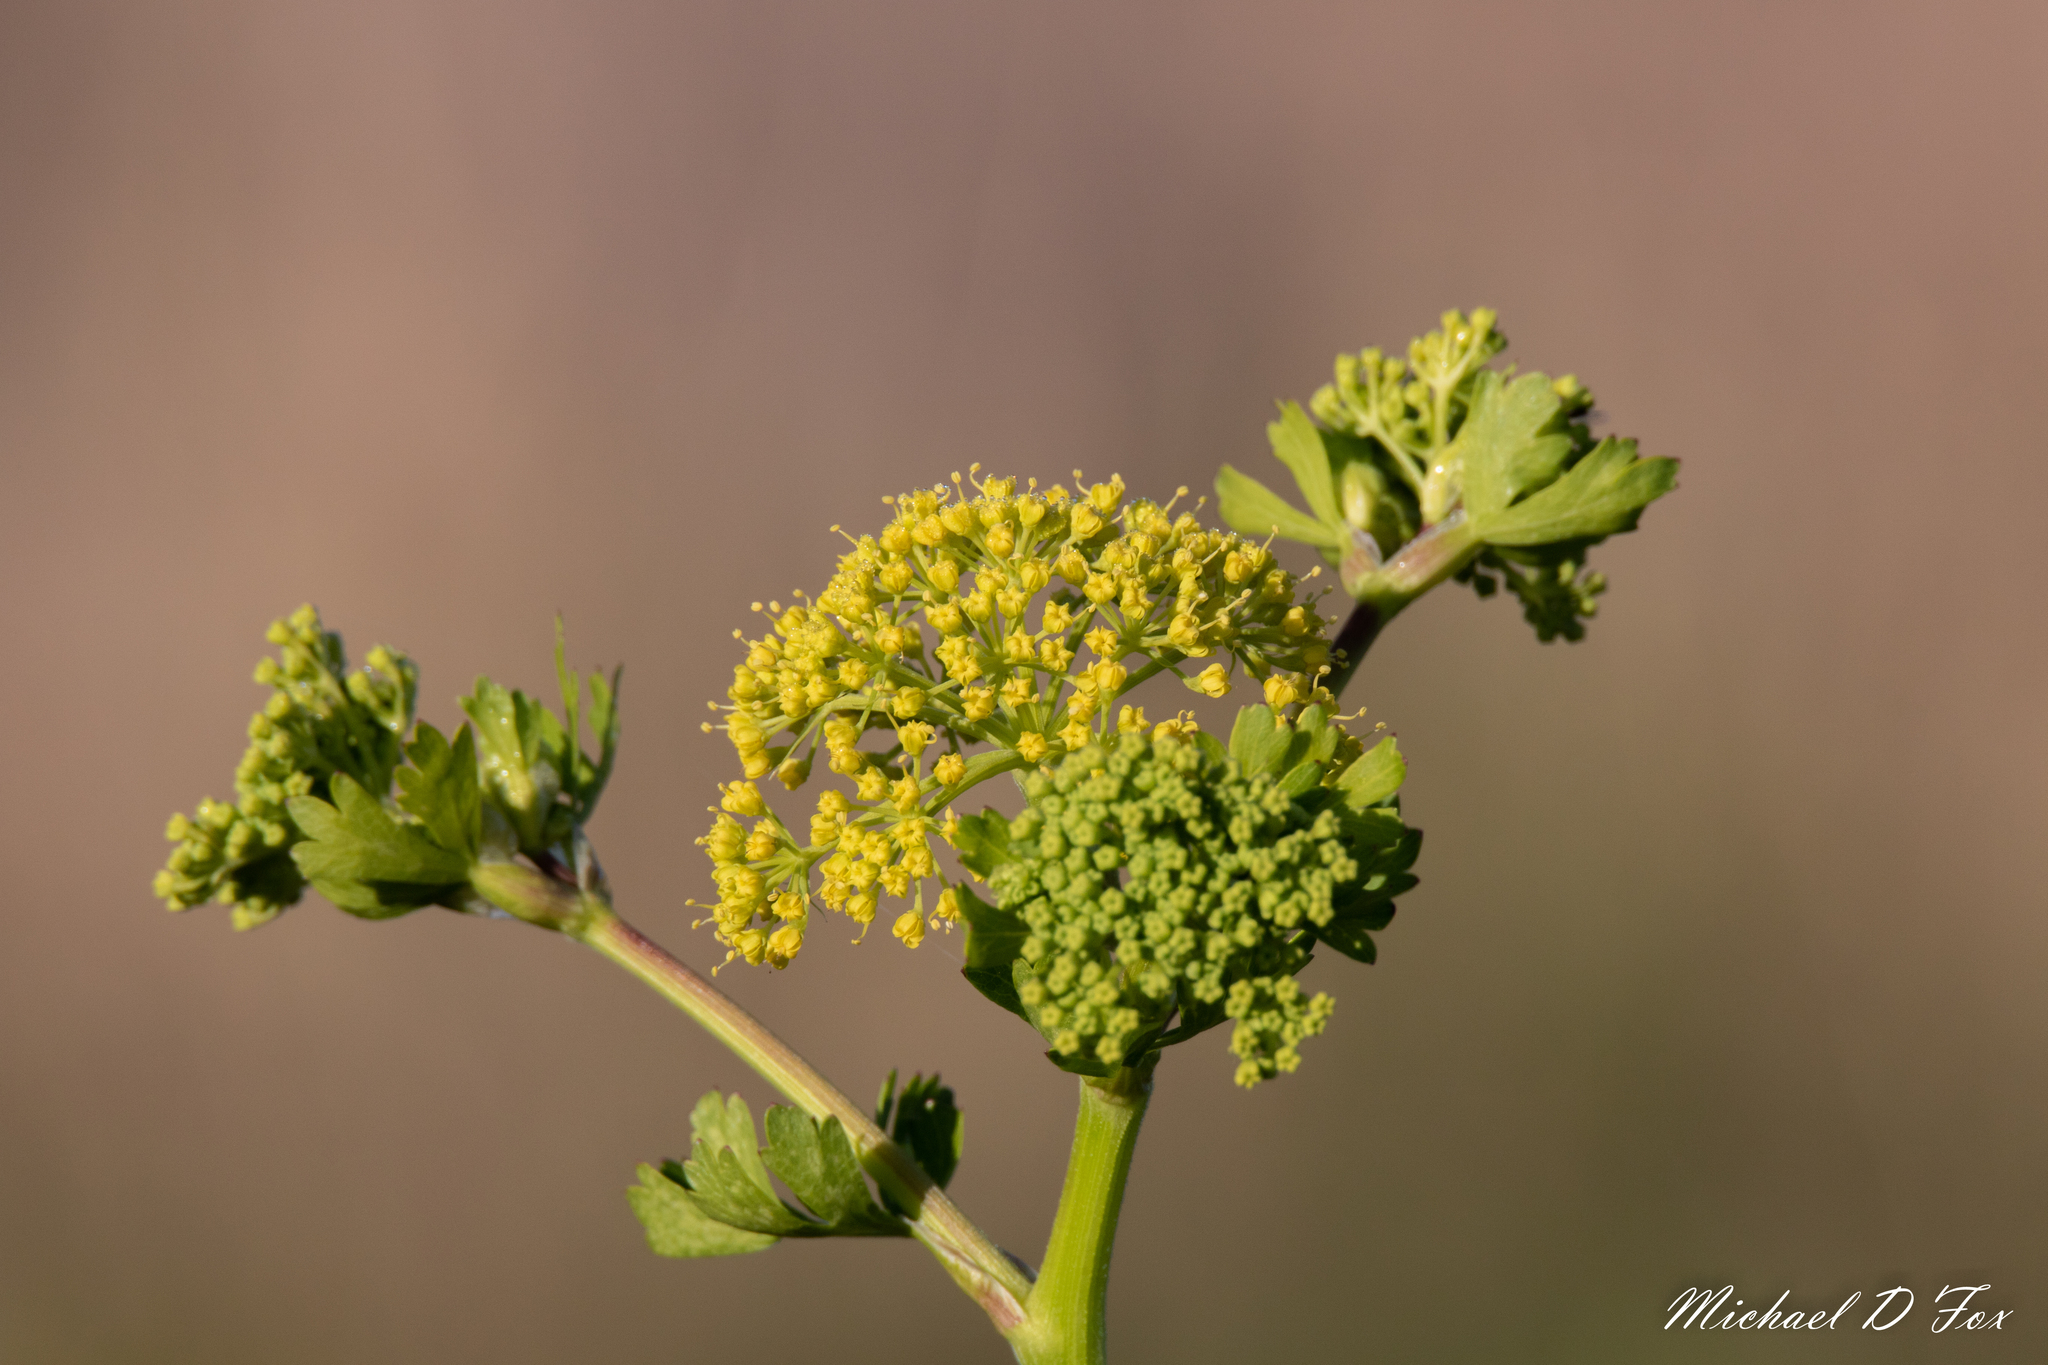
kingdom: Plantae
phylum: Tracheophyta
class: Magnoliopsida
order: Apiales
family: Apiaceae
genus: Polytaenia
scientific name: Polytaenia texana
